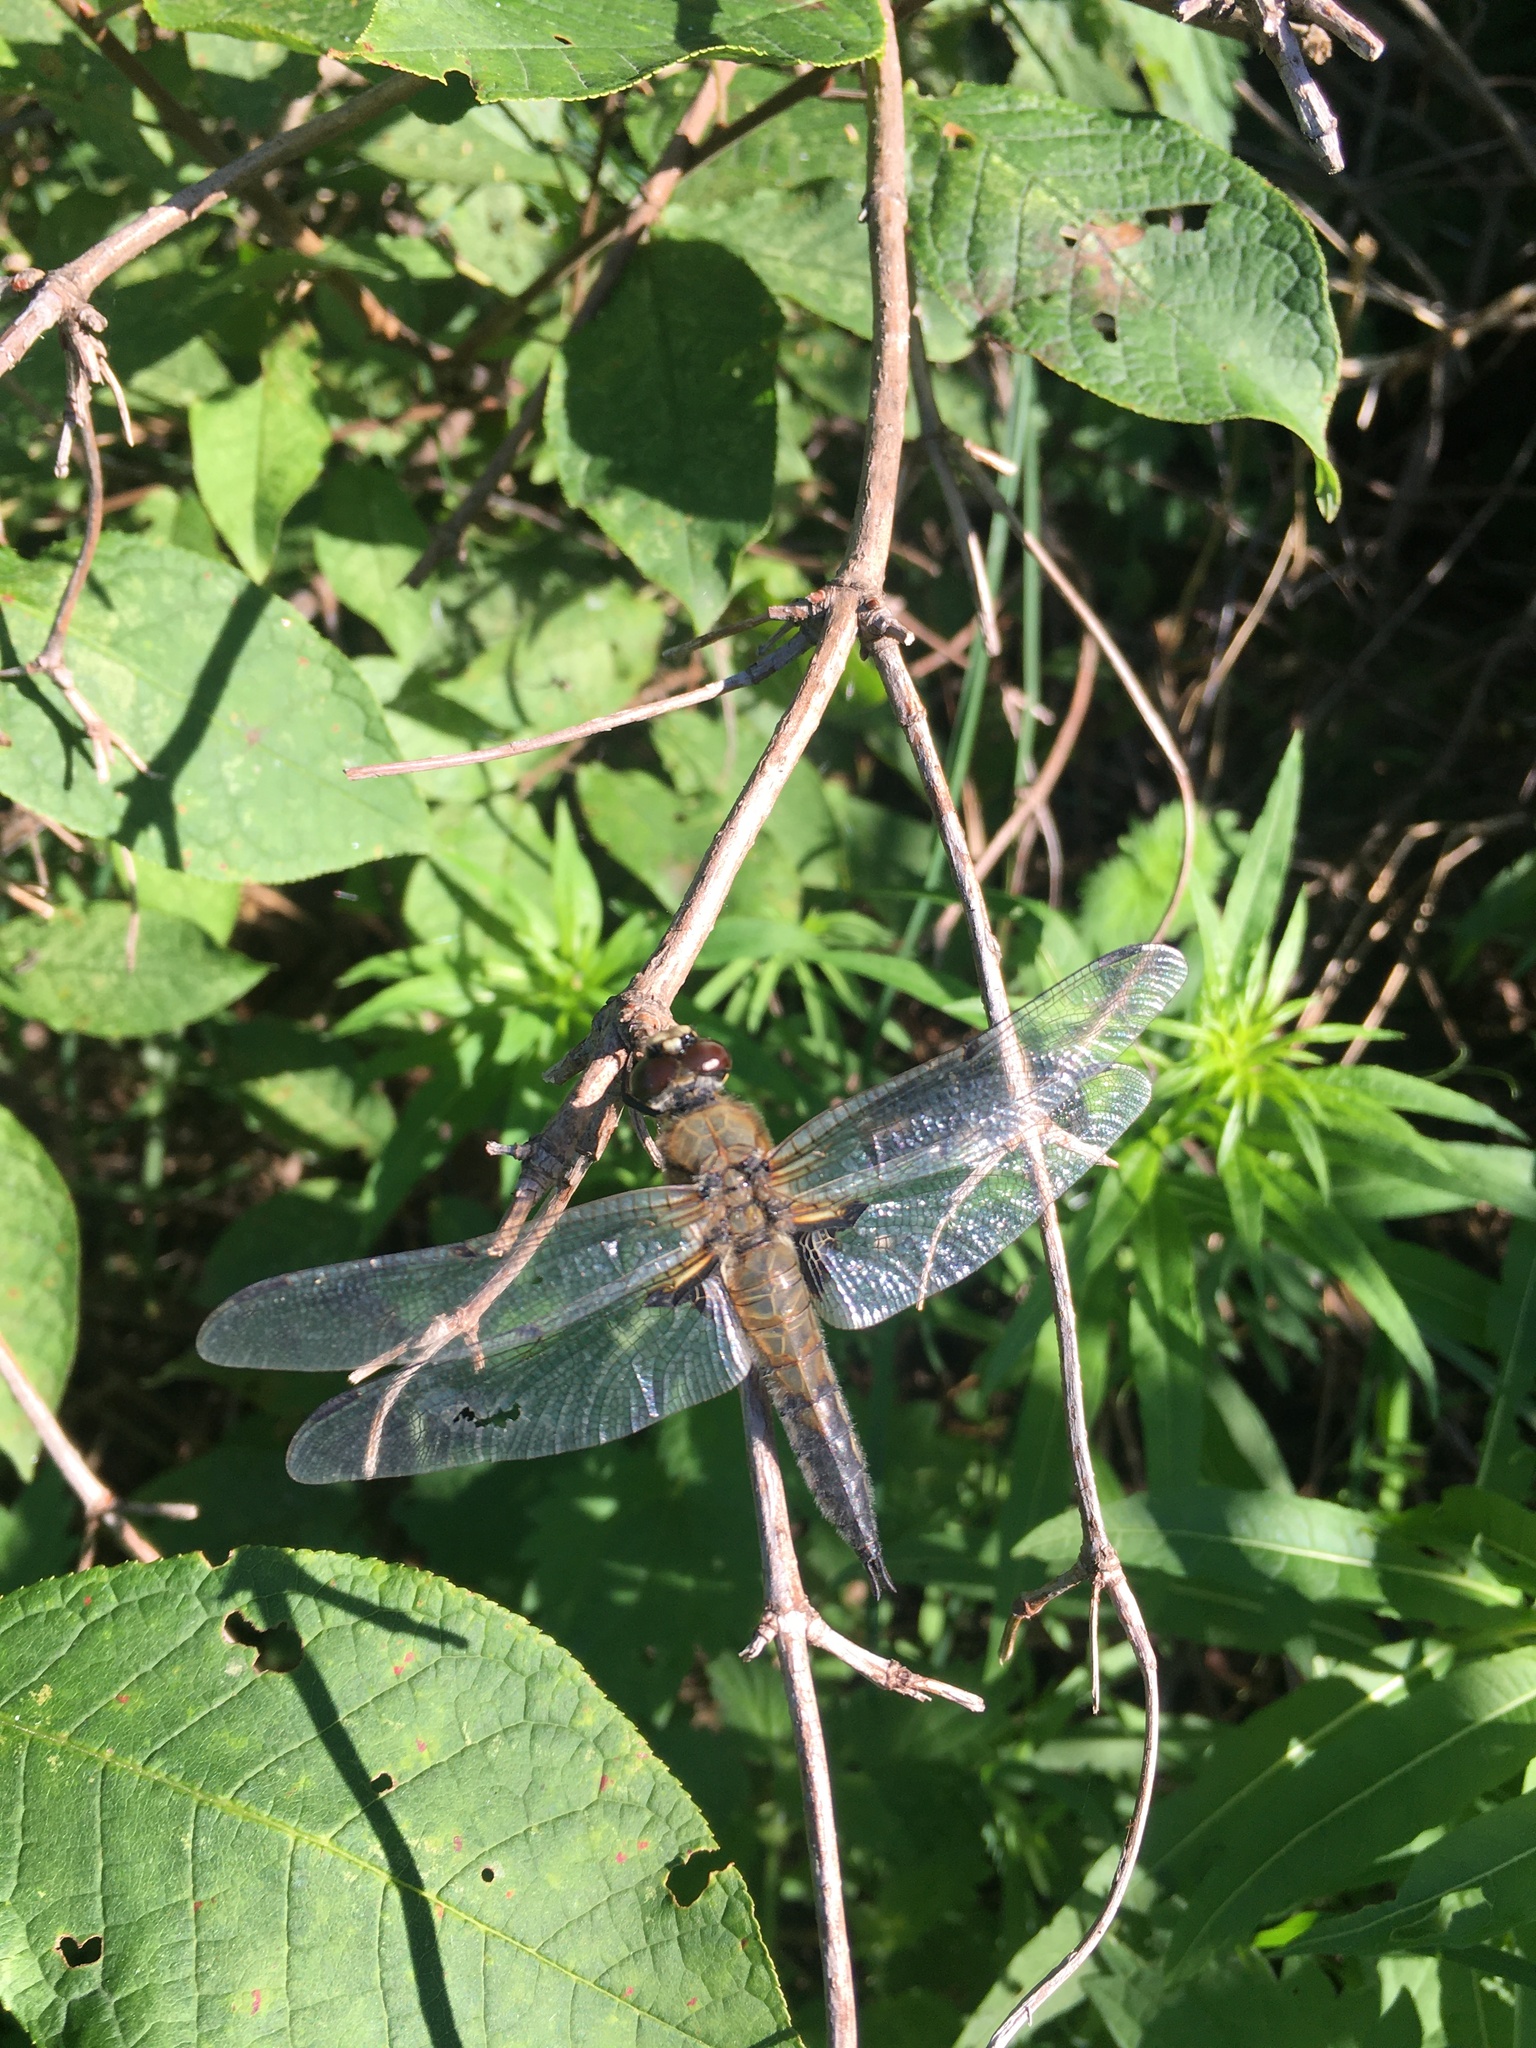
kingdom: Animalia
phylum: Arthropoda
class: Insecta
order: Odonata
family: Libellulidae
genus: Libellula
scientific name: Libellula quadrimaculata
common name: Four-spotted chaser
